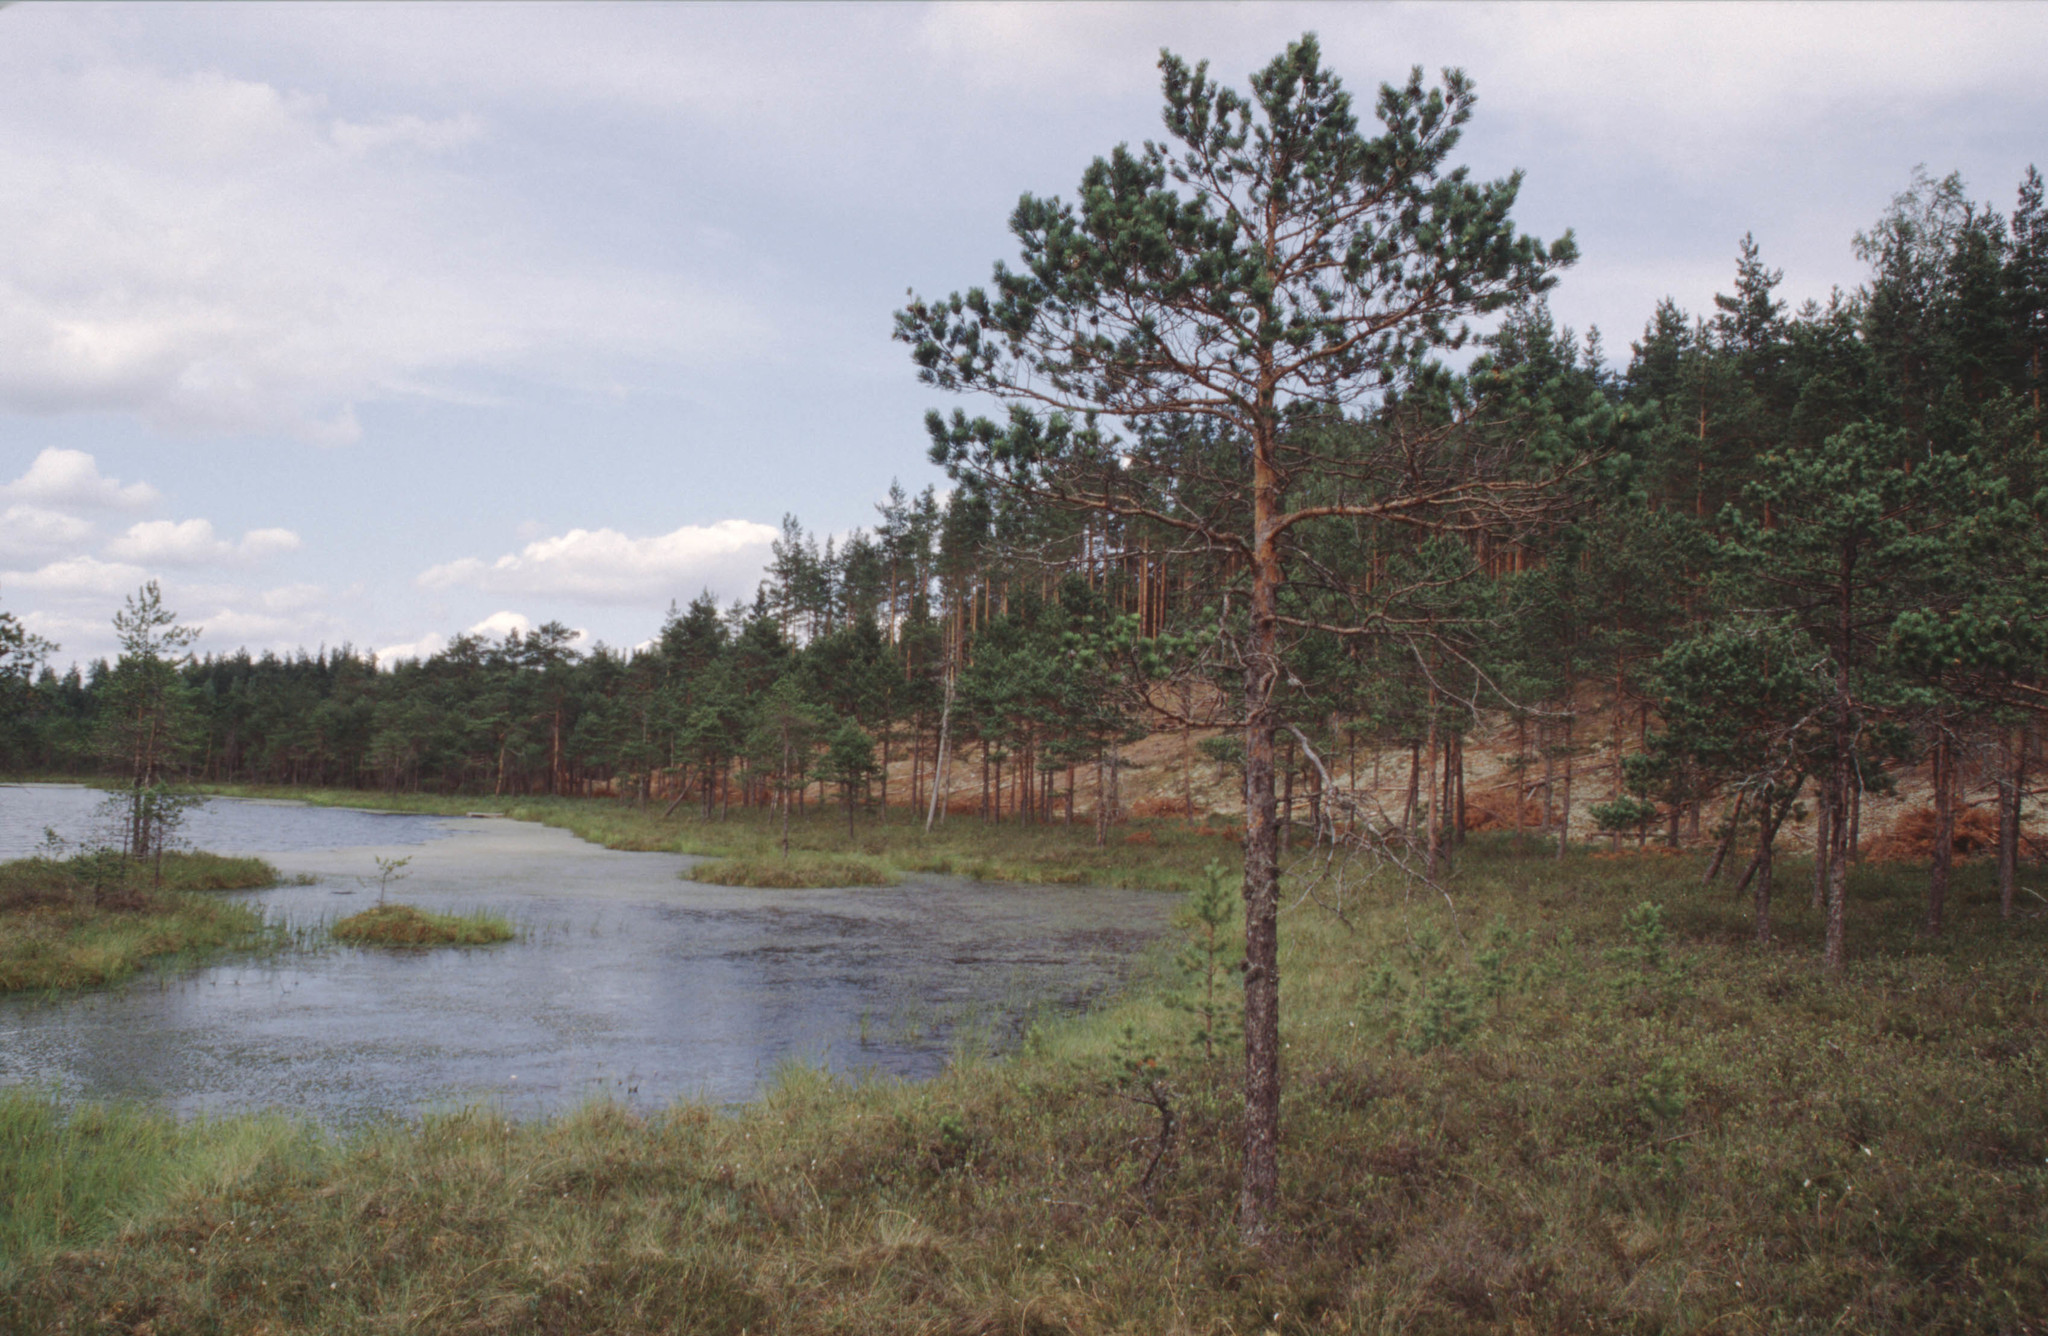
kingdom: Plantae
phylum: Tracheophyta
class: Pinopsida
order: Pinales
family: Pinaceae
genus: Pinus
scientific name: Pinus sylvestris
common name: Scots pine
